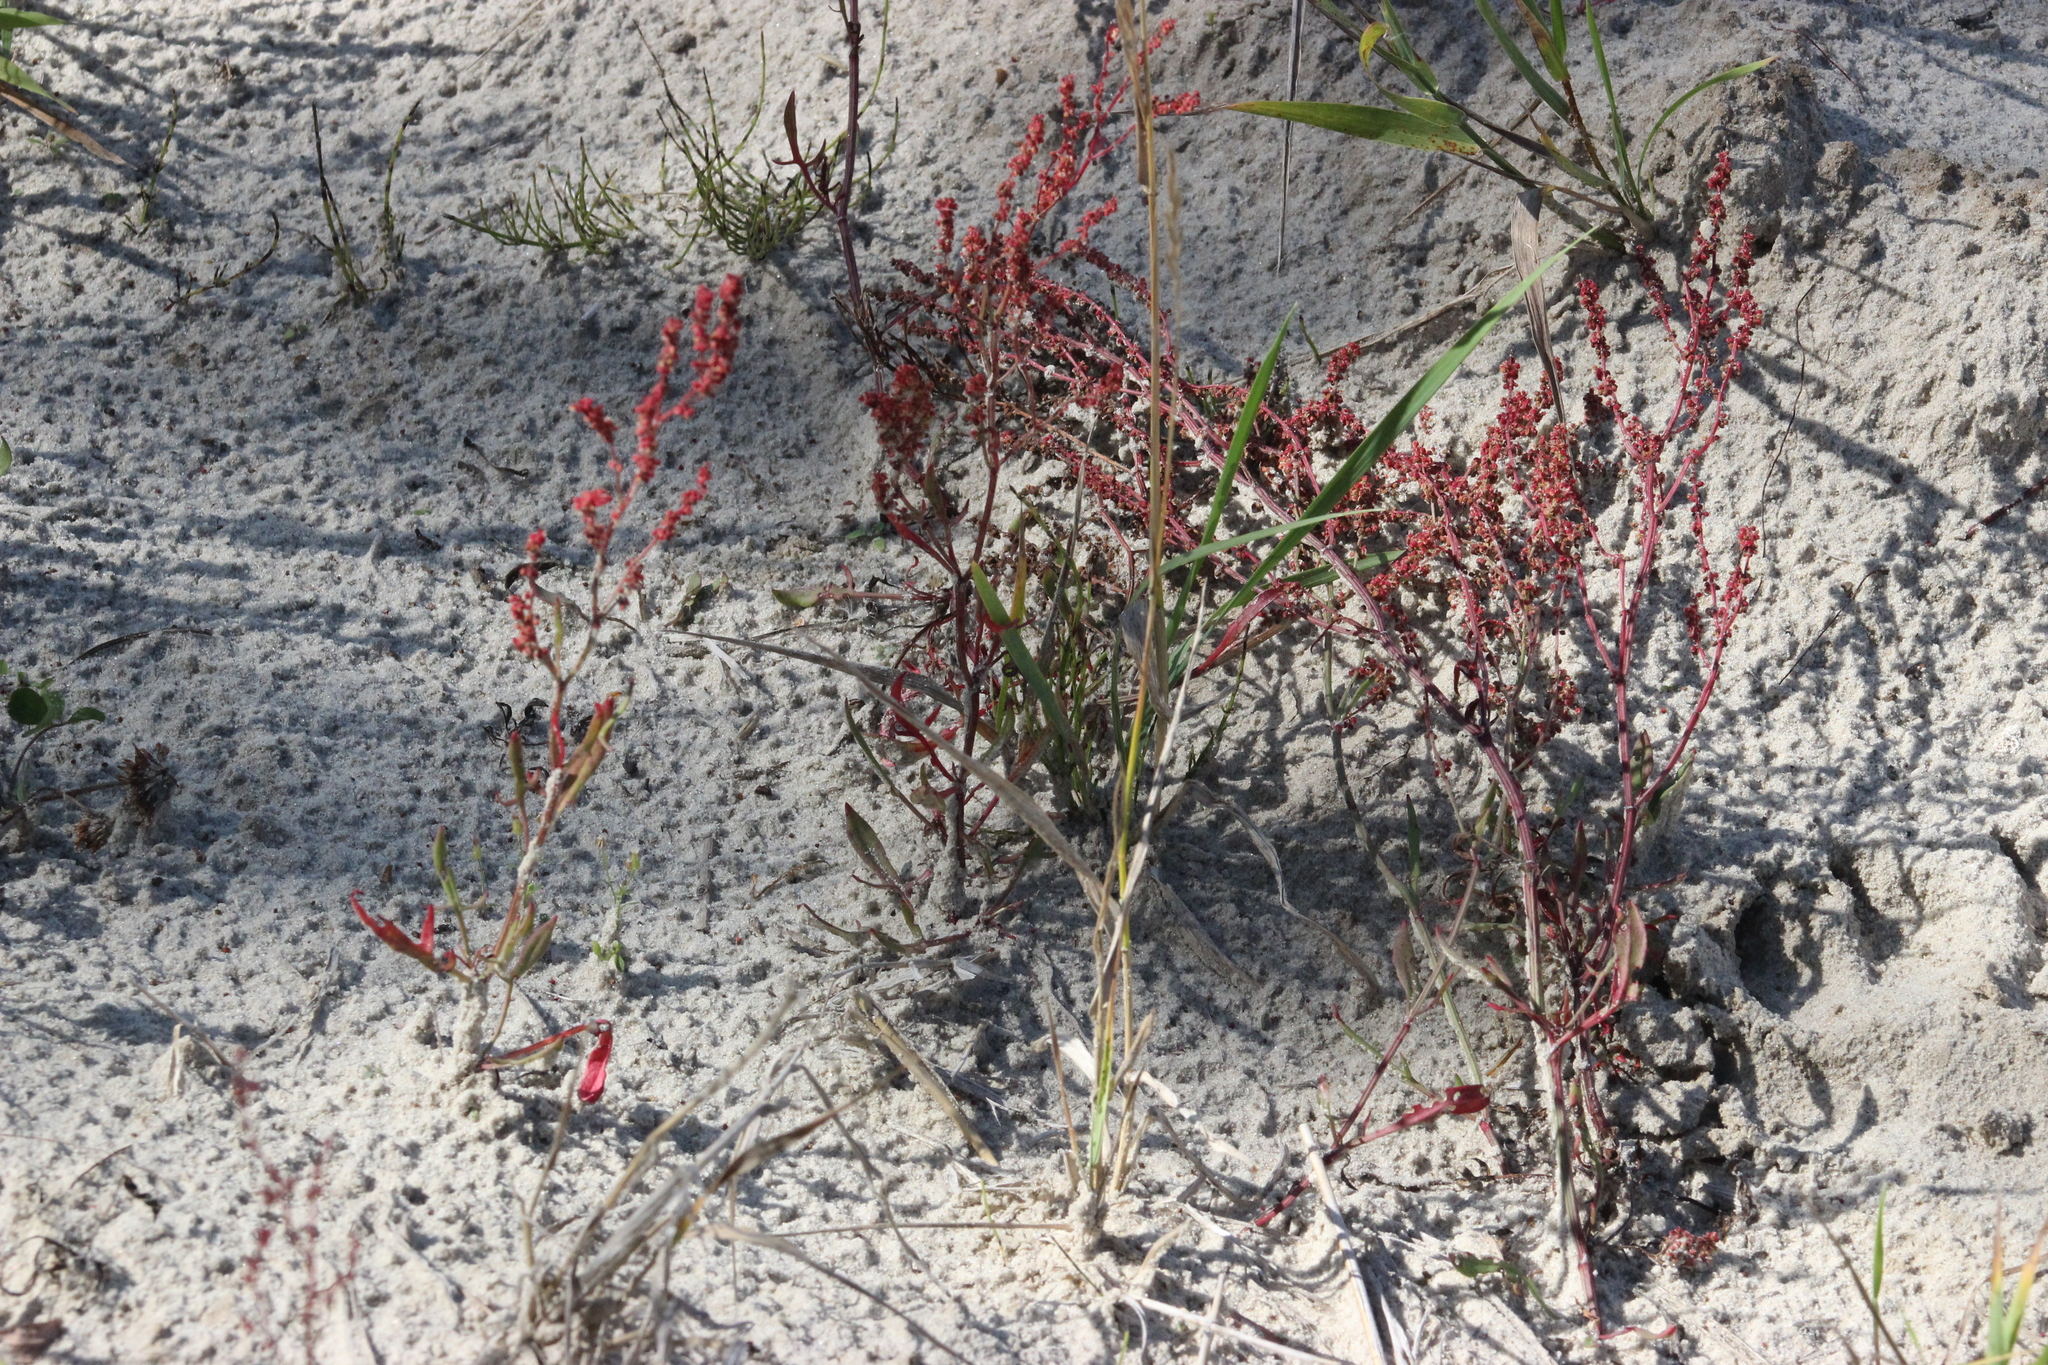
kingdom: Plantae
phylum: Tracheophyta
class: Magnoliopsida
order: Caryophyllales
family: Polygonaceae
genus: Rumex
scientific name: Rumex acetosella
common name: Common sheep sorrel
